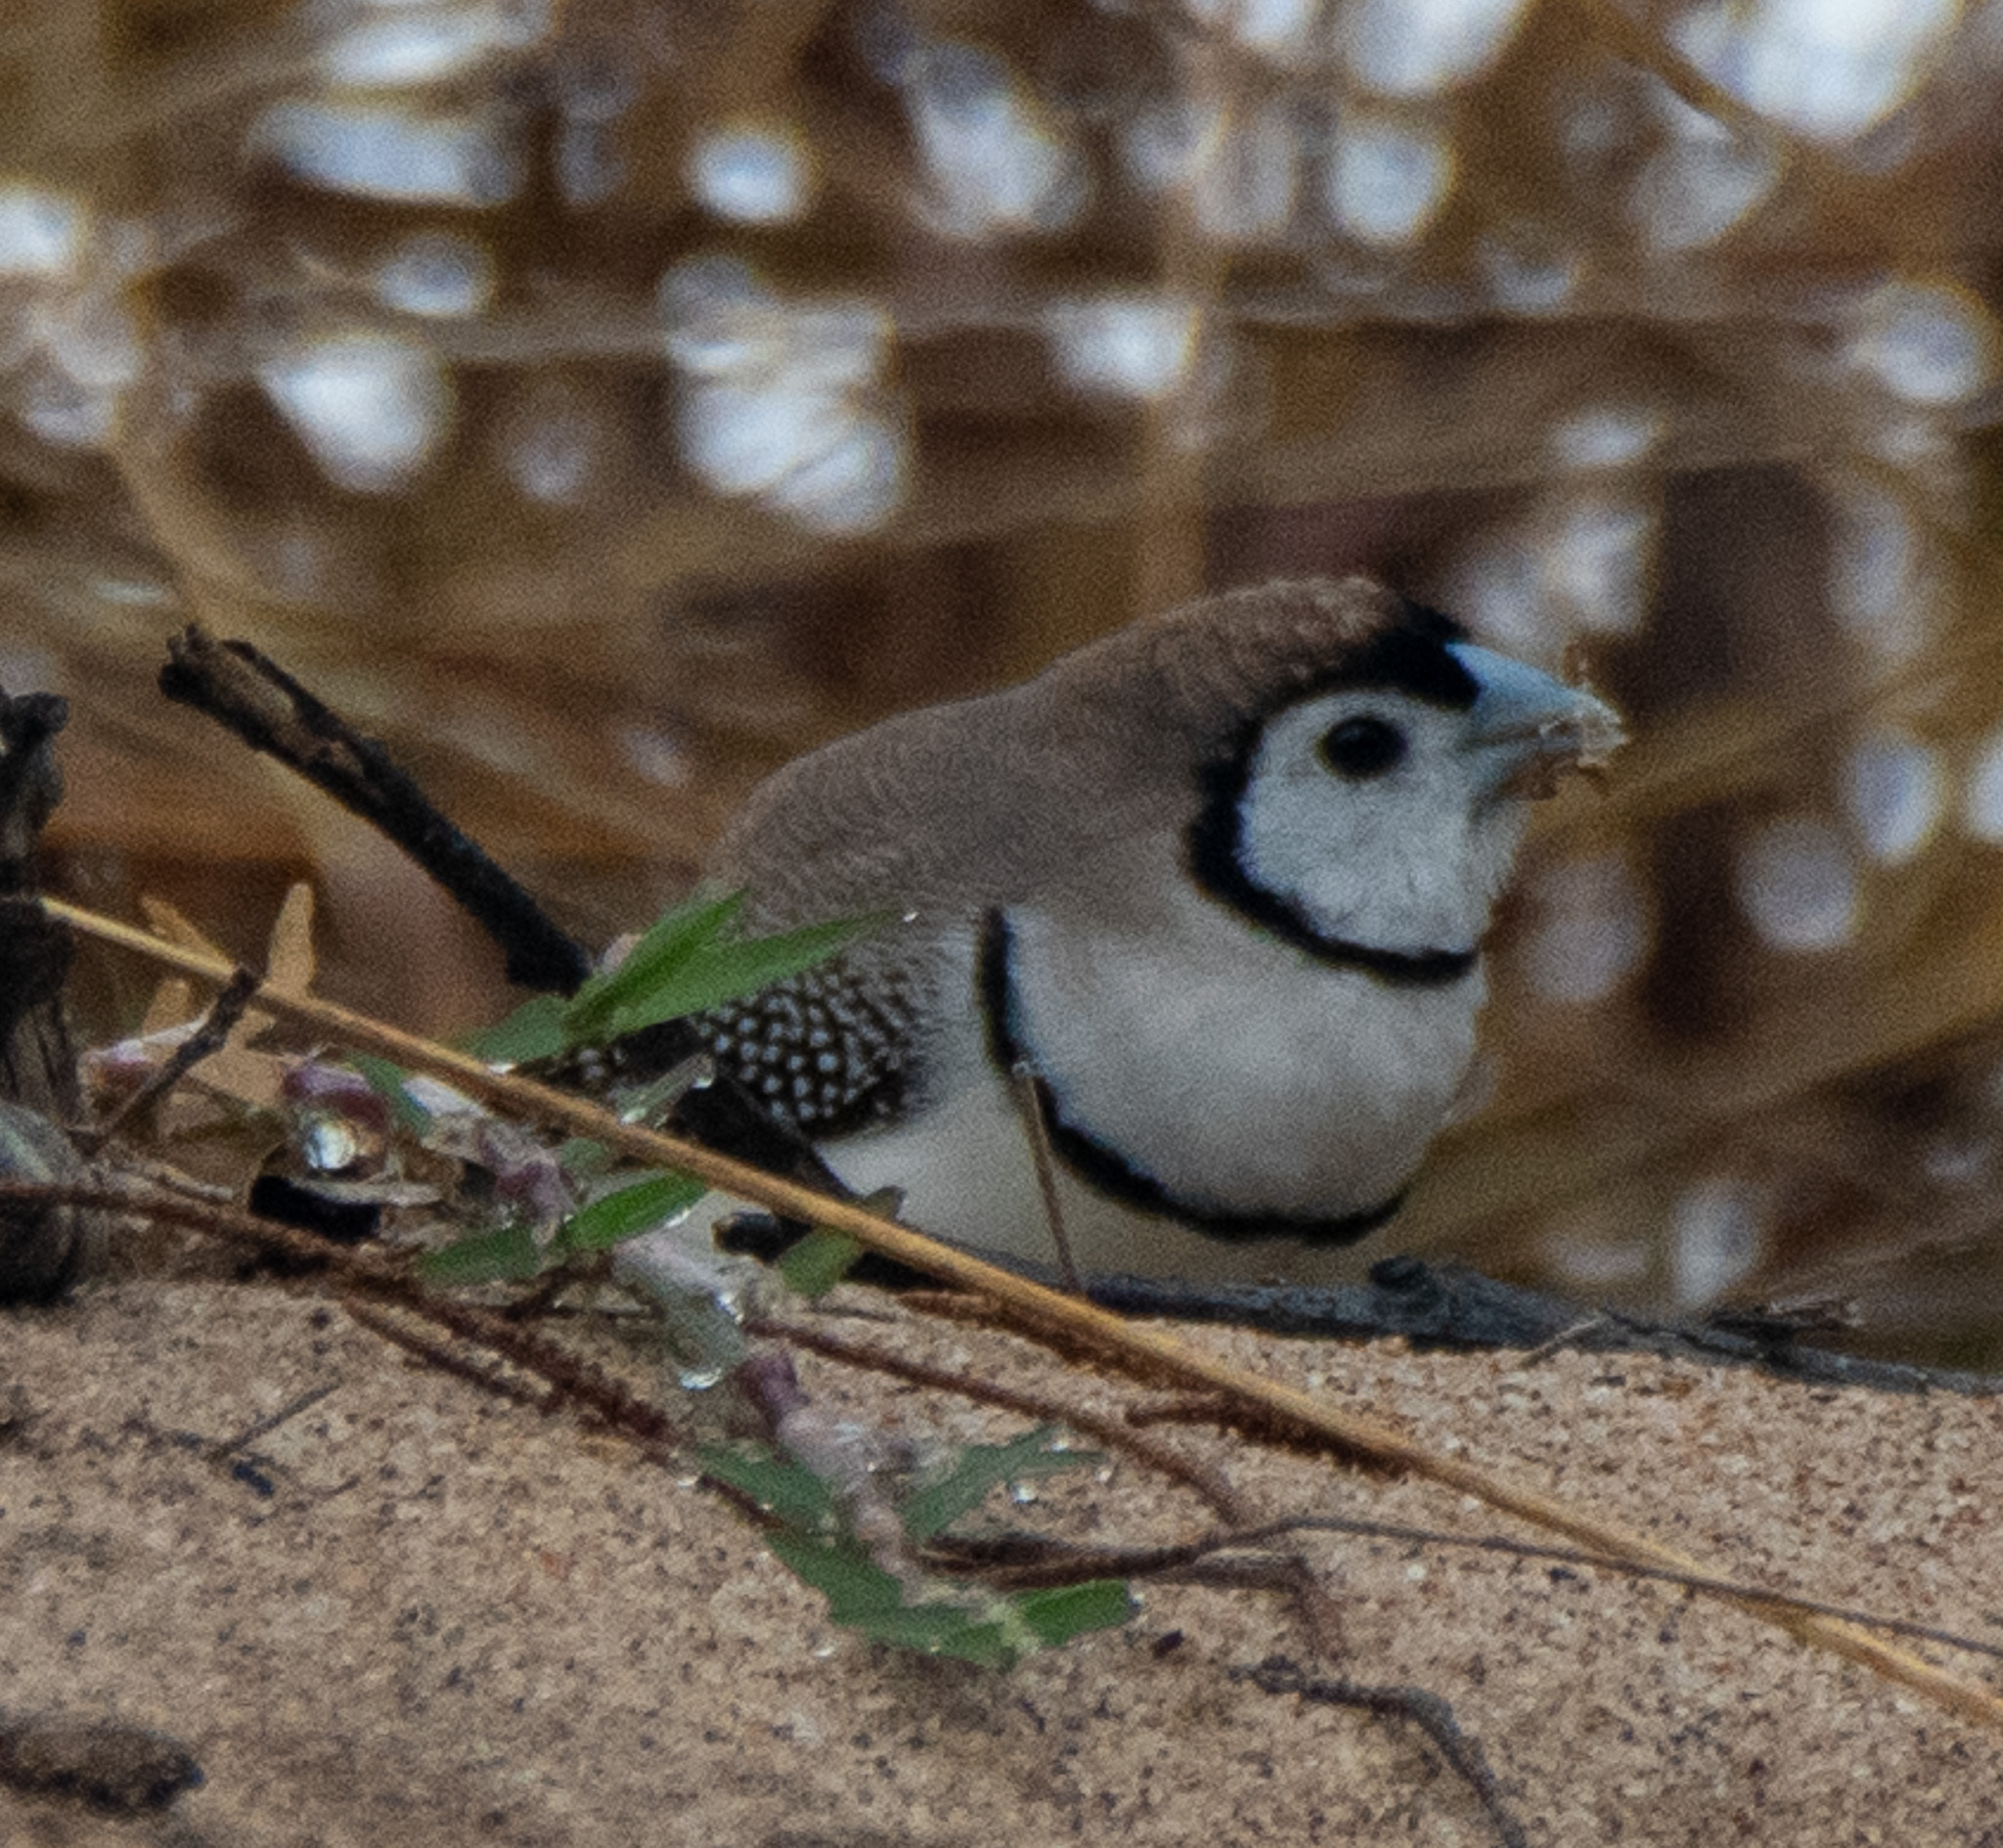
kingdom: Animalia
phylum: Chordata
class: Aves
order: Passeriformes
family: Estrildidae
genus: Taeniopygia
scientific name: Taeniopygia bichenovii
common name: Double-barred finch
